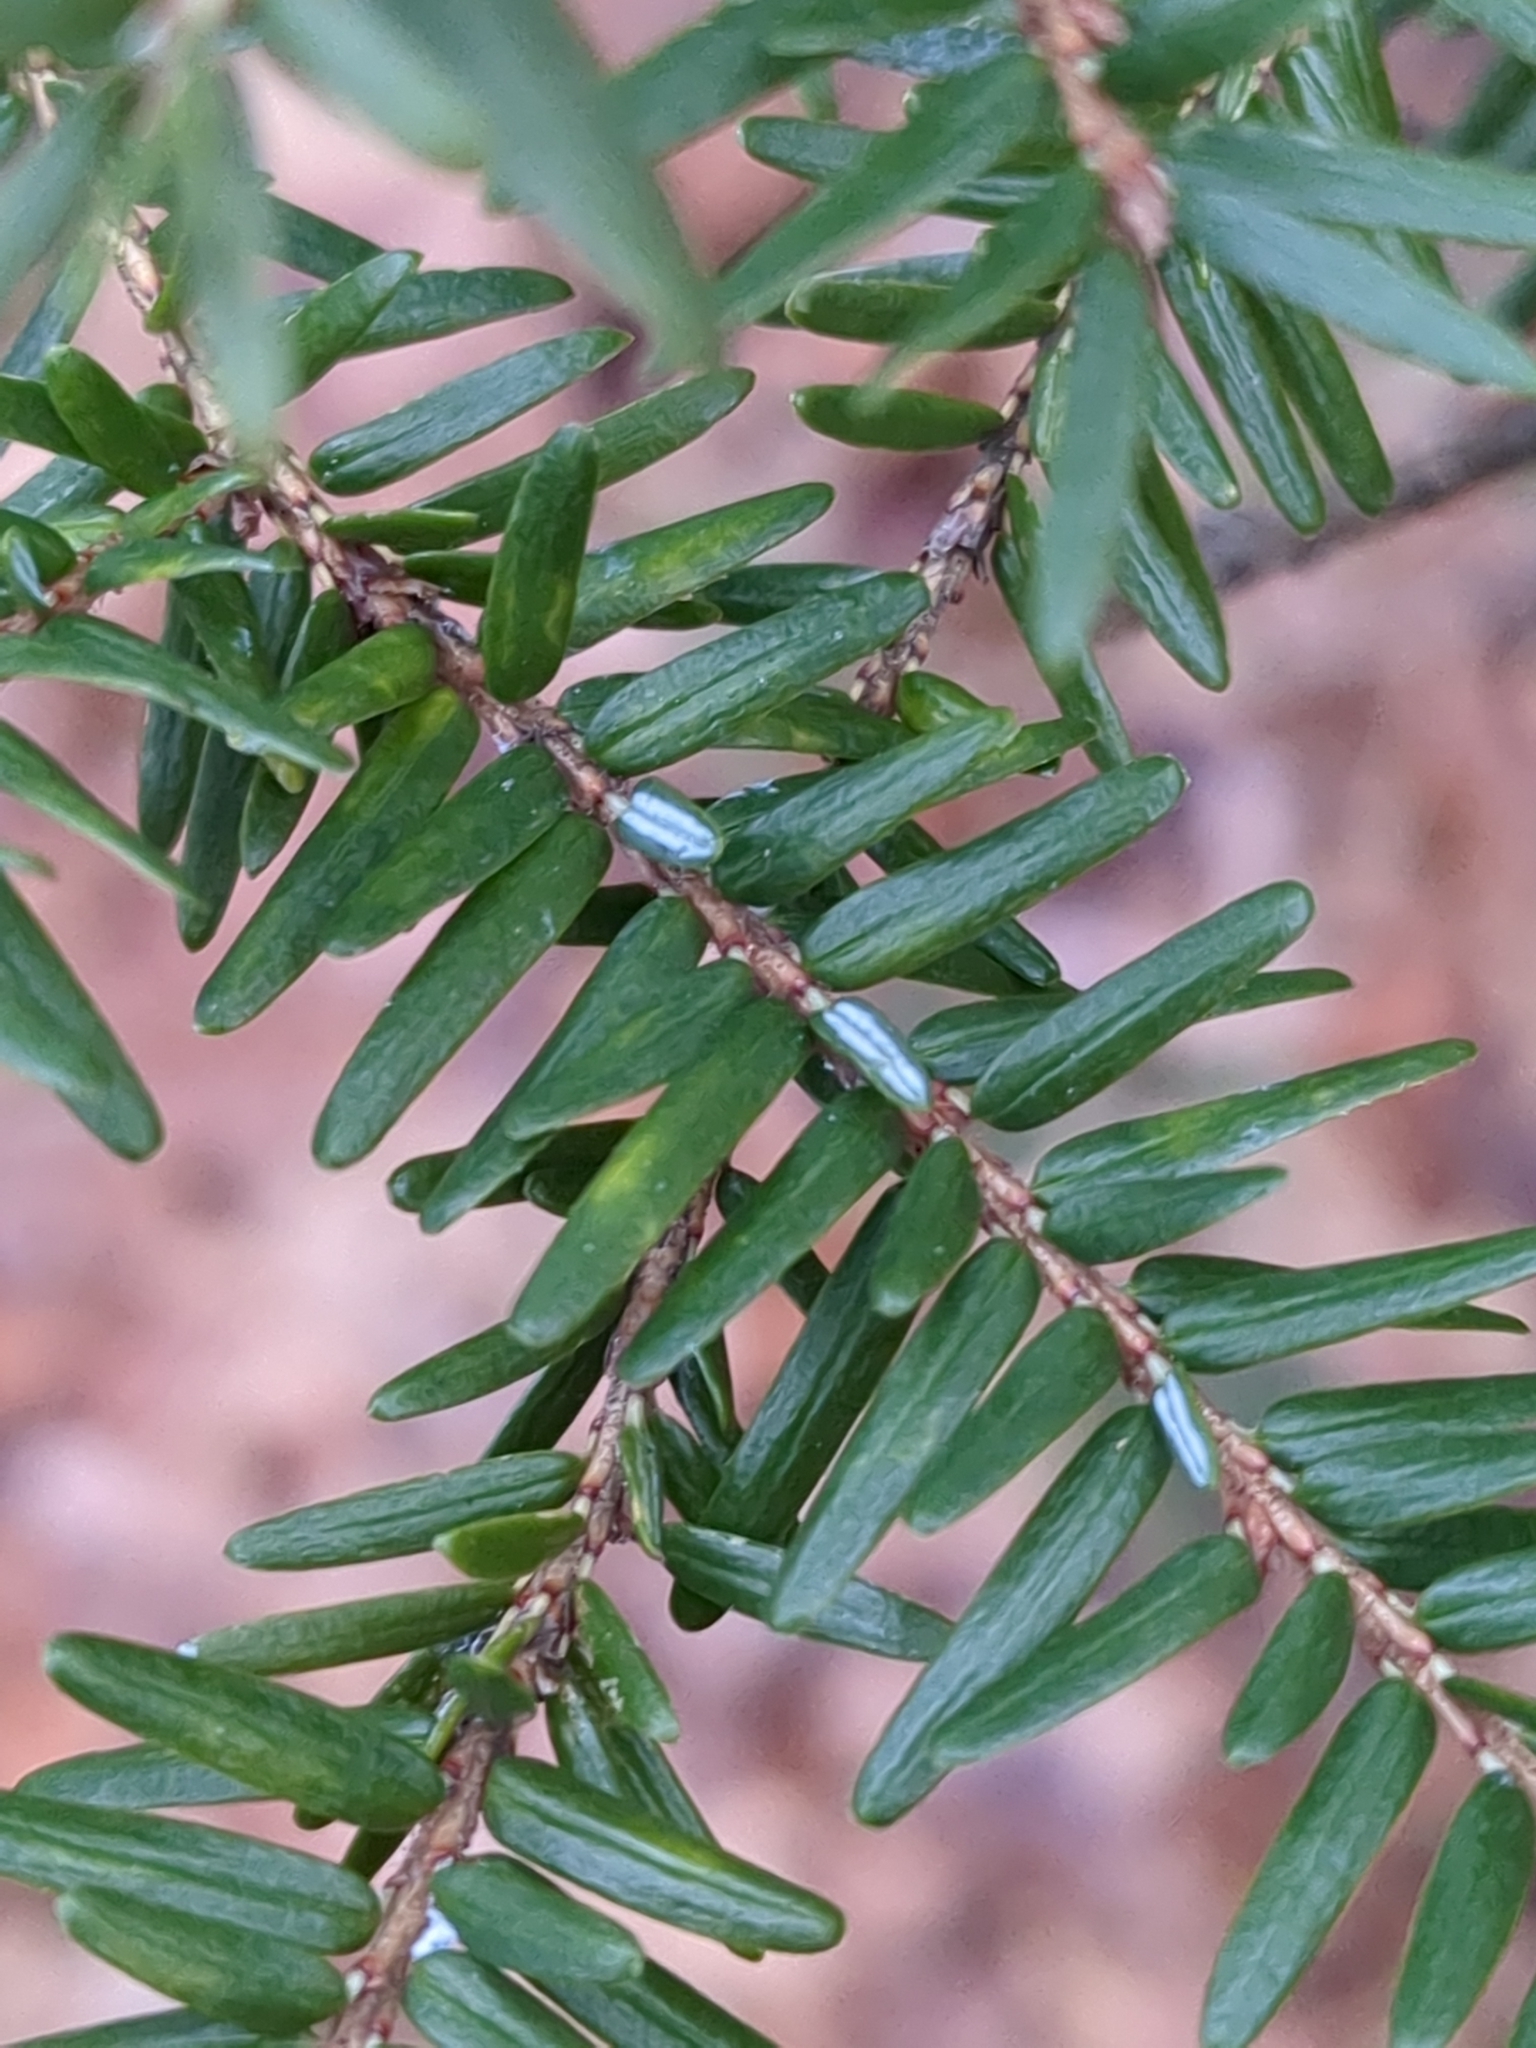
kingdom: Plantae
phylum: Tracheophyta
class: Pinopsida
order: Pinales
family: Pinaceae
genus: Tsuga
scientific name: Tsuga canadensis
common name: Eastern hemlock
